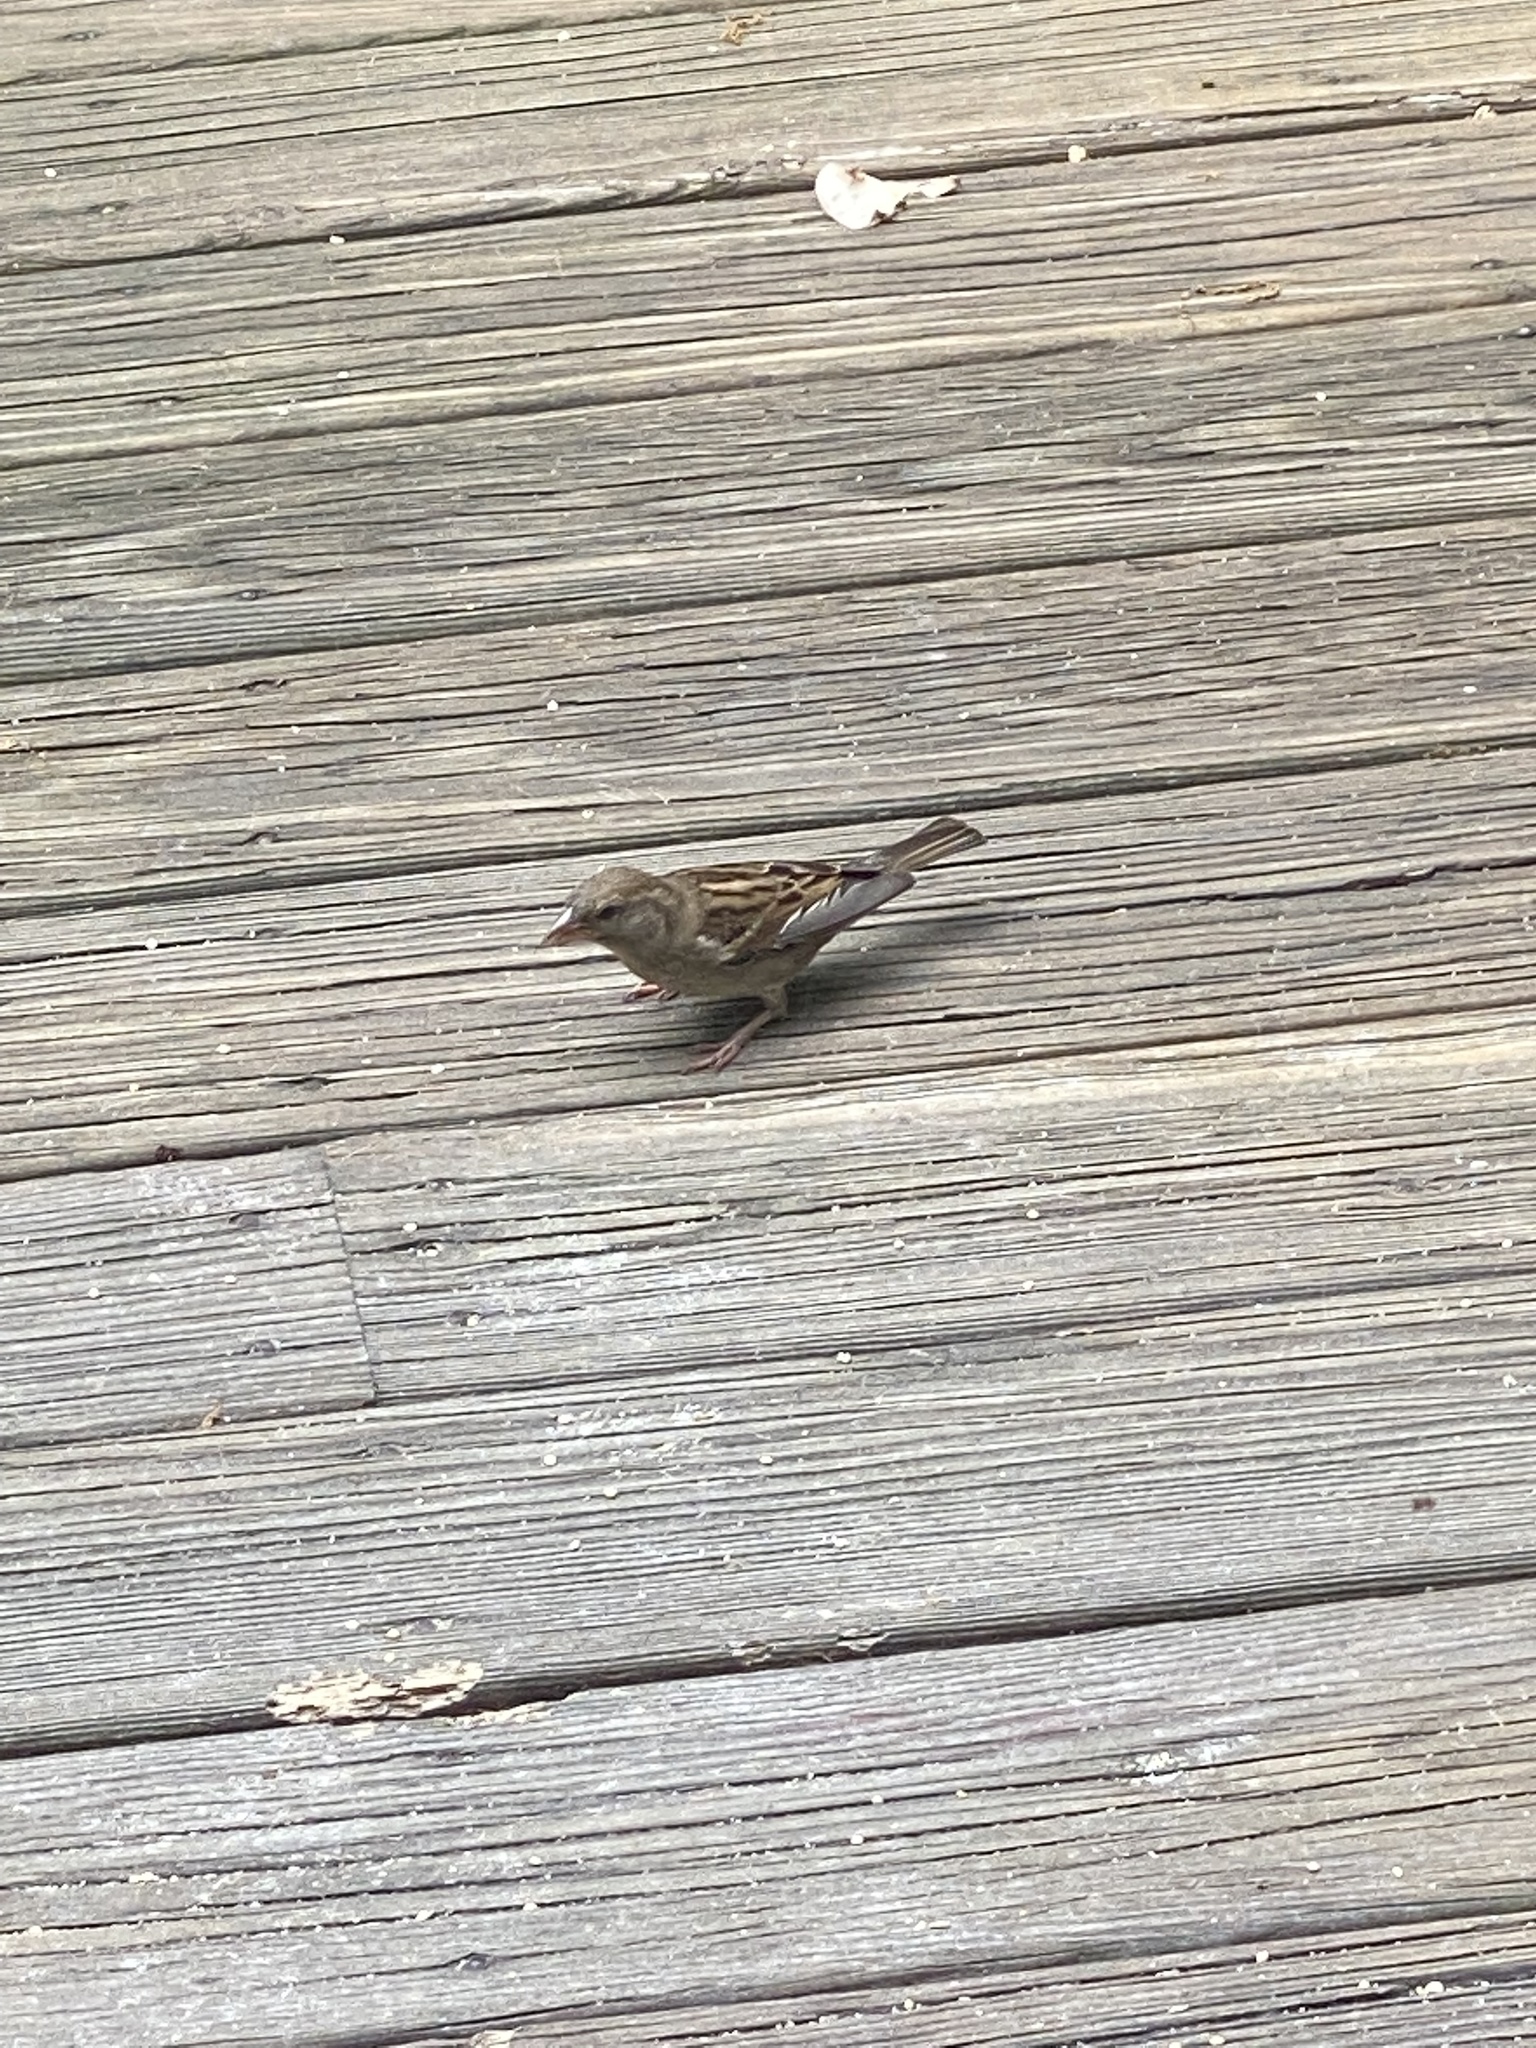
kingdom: Animalia
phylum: Chordata
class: Aves
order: Passeriformes
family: Passeridae
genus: Passer
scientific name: Passer domesticus
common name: House sparrow
